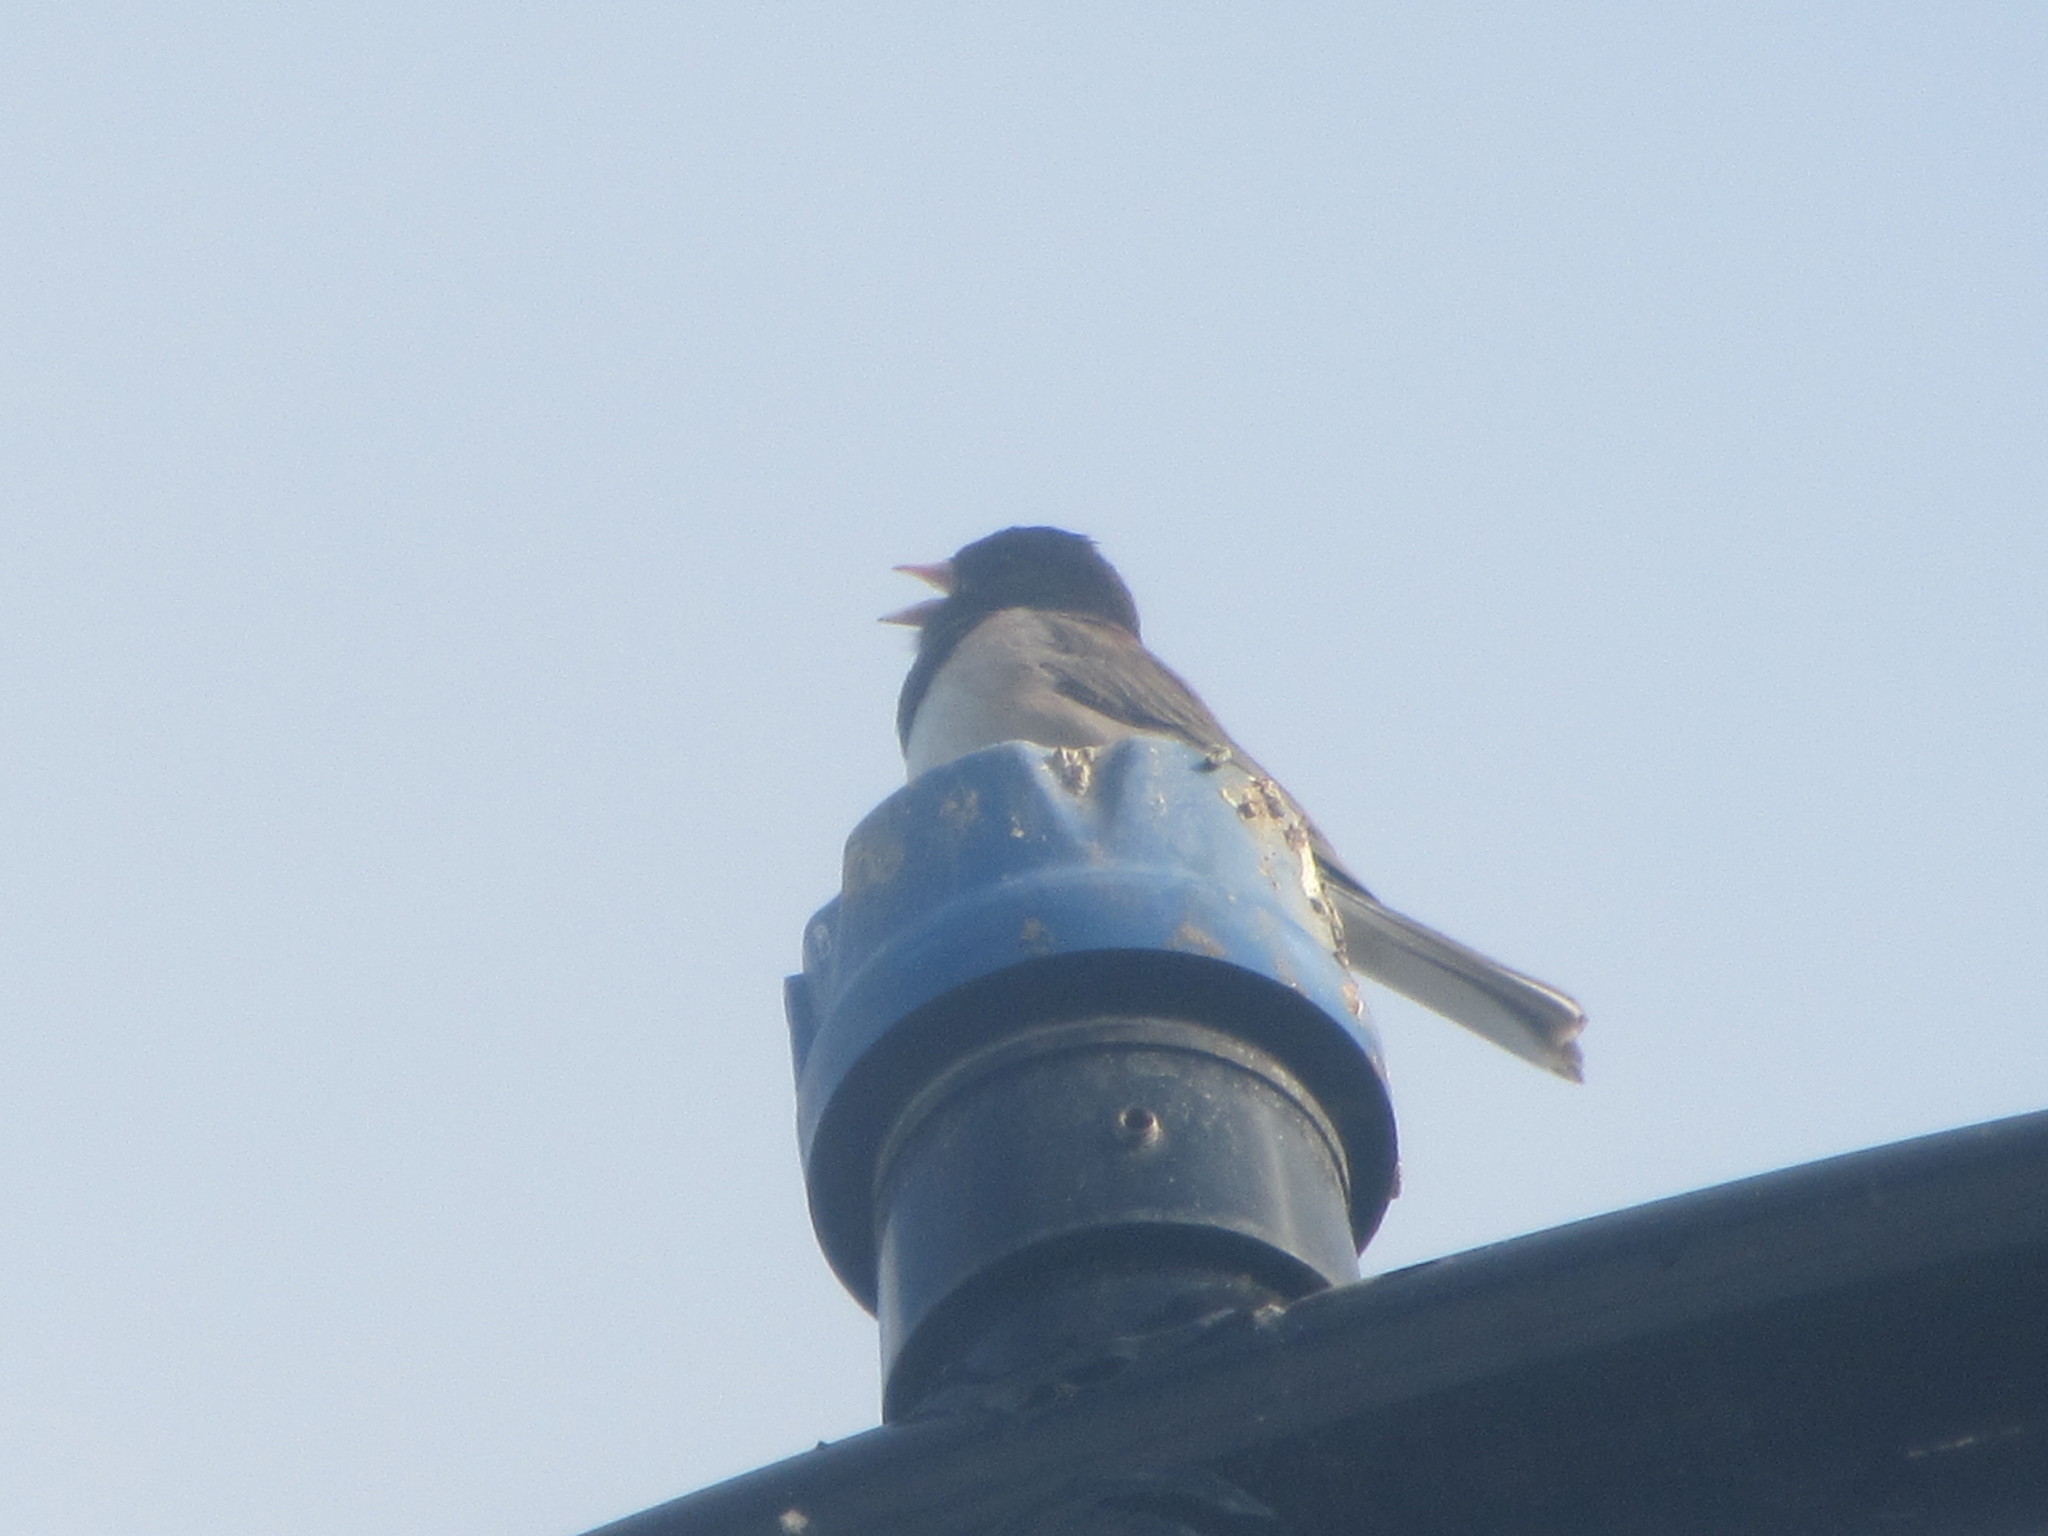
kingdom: Animalia
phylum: Chordata
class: Aves
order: Passeriformes
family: Passerellidae
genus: Junco
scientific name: Junco hyemalis
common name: Dark-eyed junco
